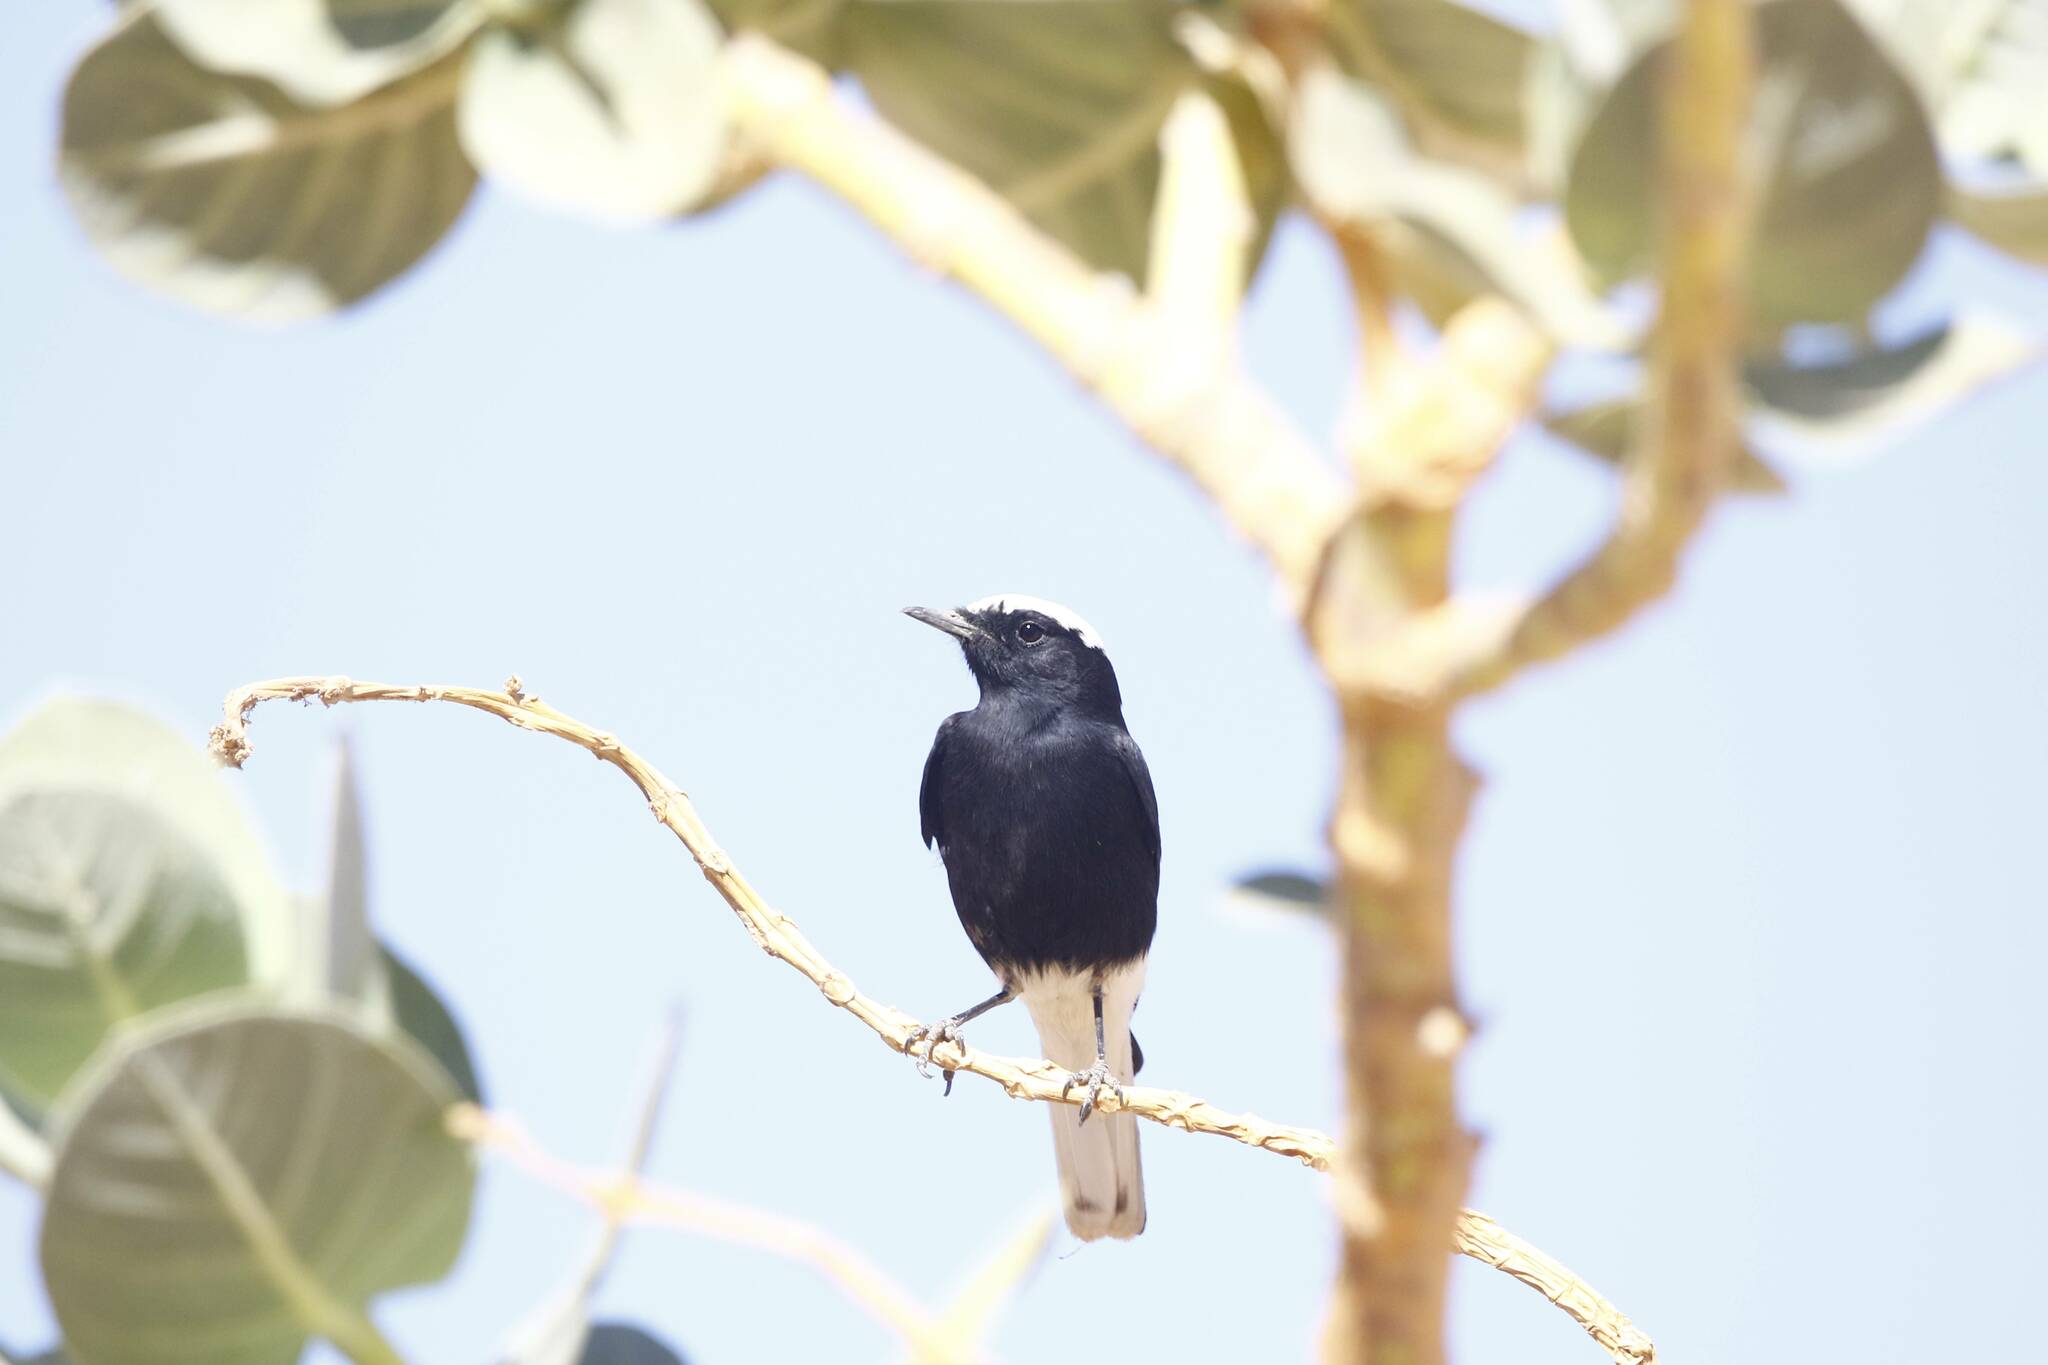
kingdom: Animalia
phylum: Chordata
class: Aves
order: Passeriformes
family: Muscicapidae
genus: Oenanthe
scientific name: Oenanthe leucopyga
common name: White-crowned wheatear
